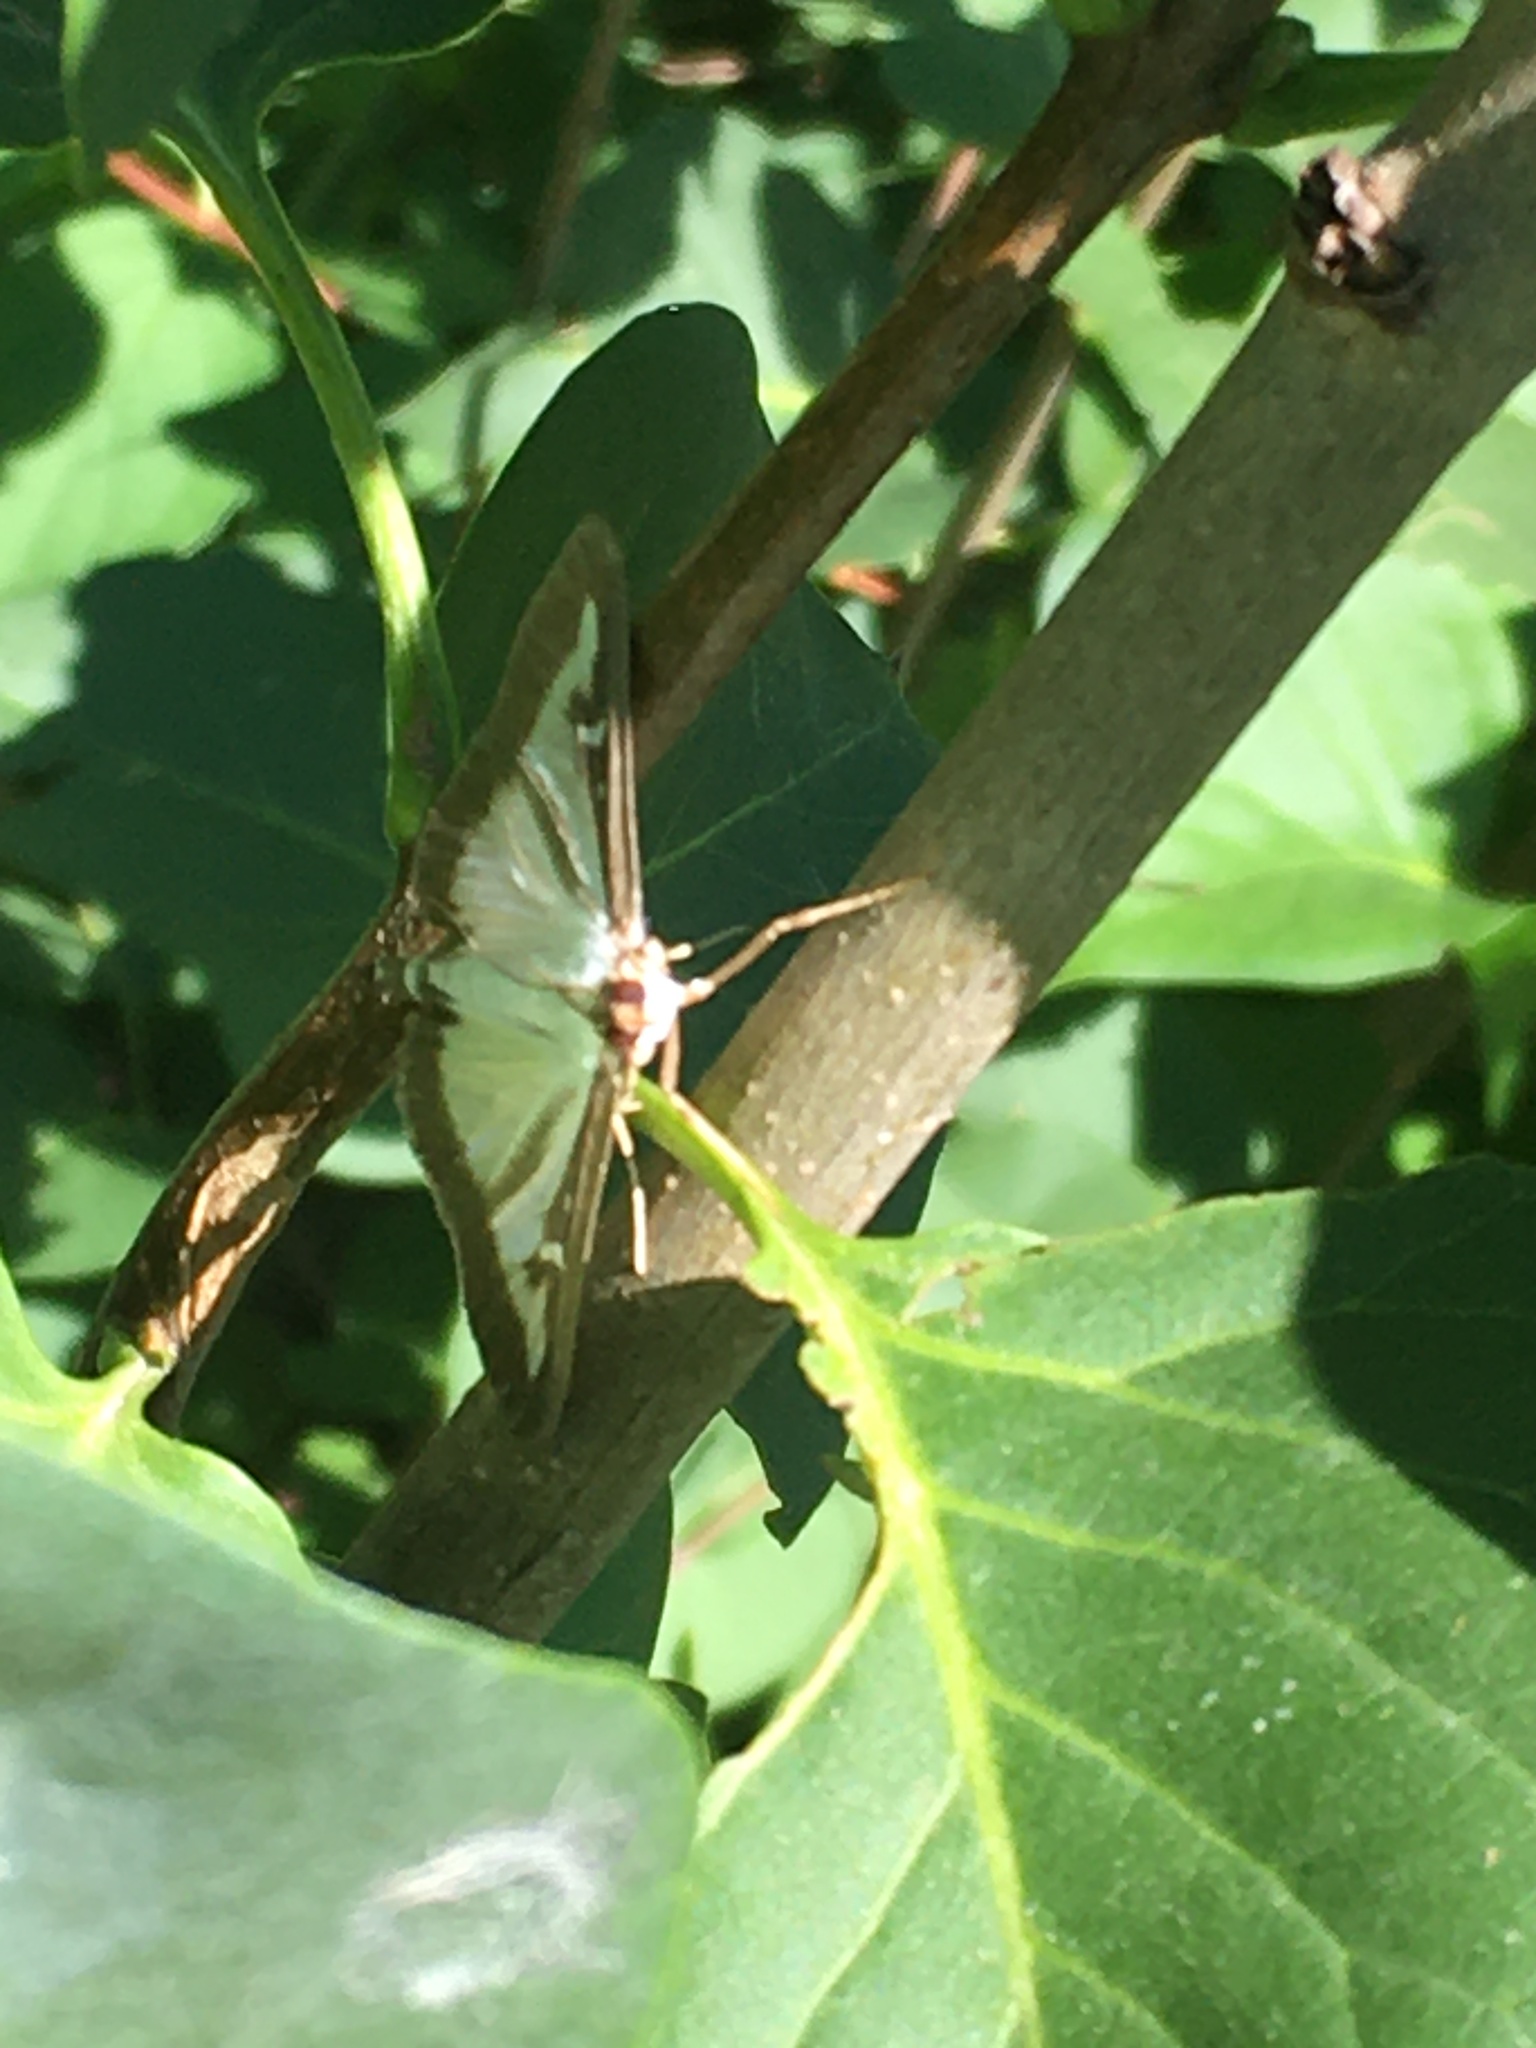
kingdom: Animalia
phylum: Arthropoda
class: Insecta
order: Lepidoptera
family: Crambidae
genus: Cydalima
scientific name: Cydalima perspectalis
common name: Box tree moth
